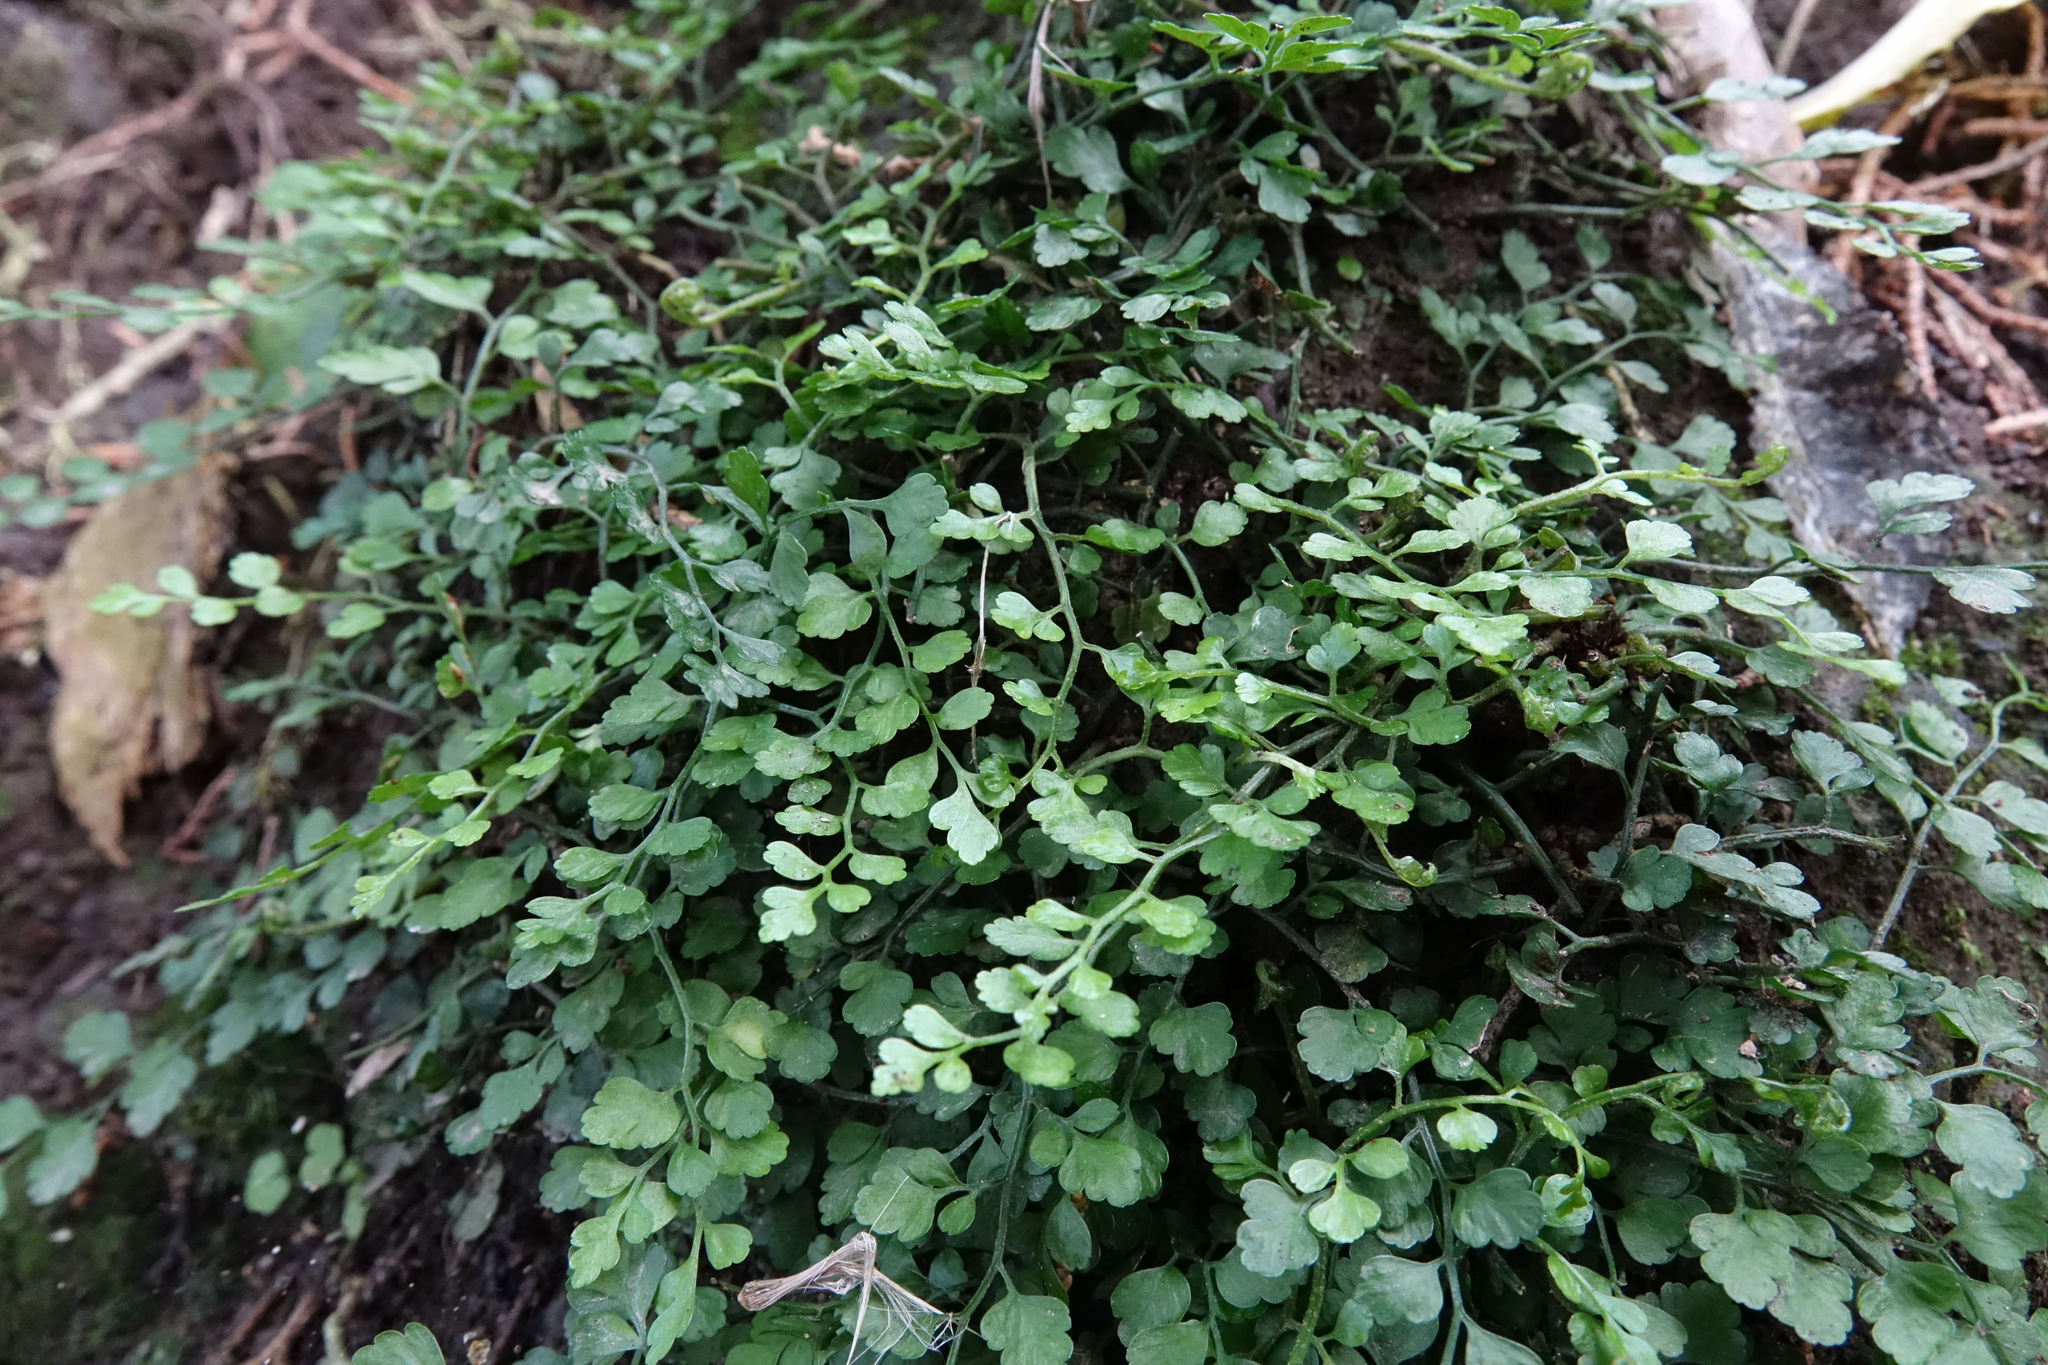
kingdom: Plantae
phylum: Tracheophyta
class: Polypodiopsida
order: Polypodiales
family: Aspleniaceae
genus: Asplenium
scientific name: Asplenium hookerianum
